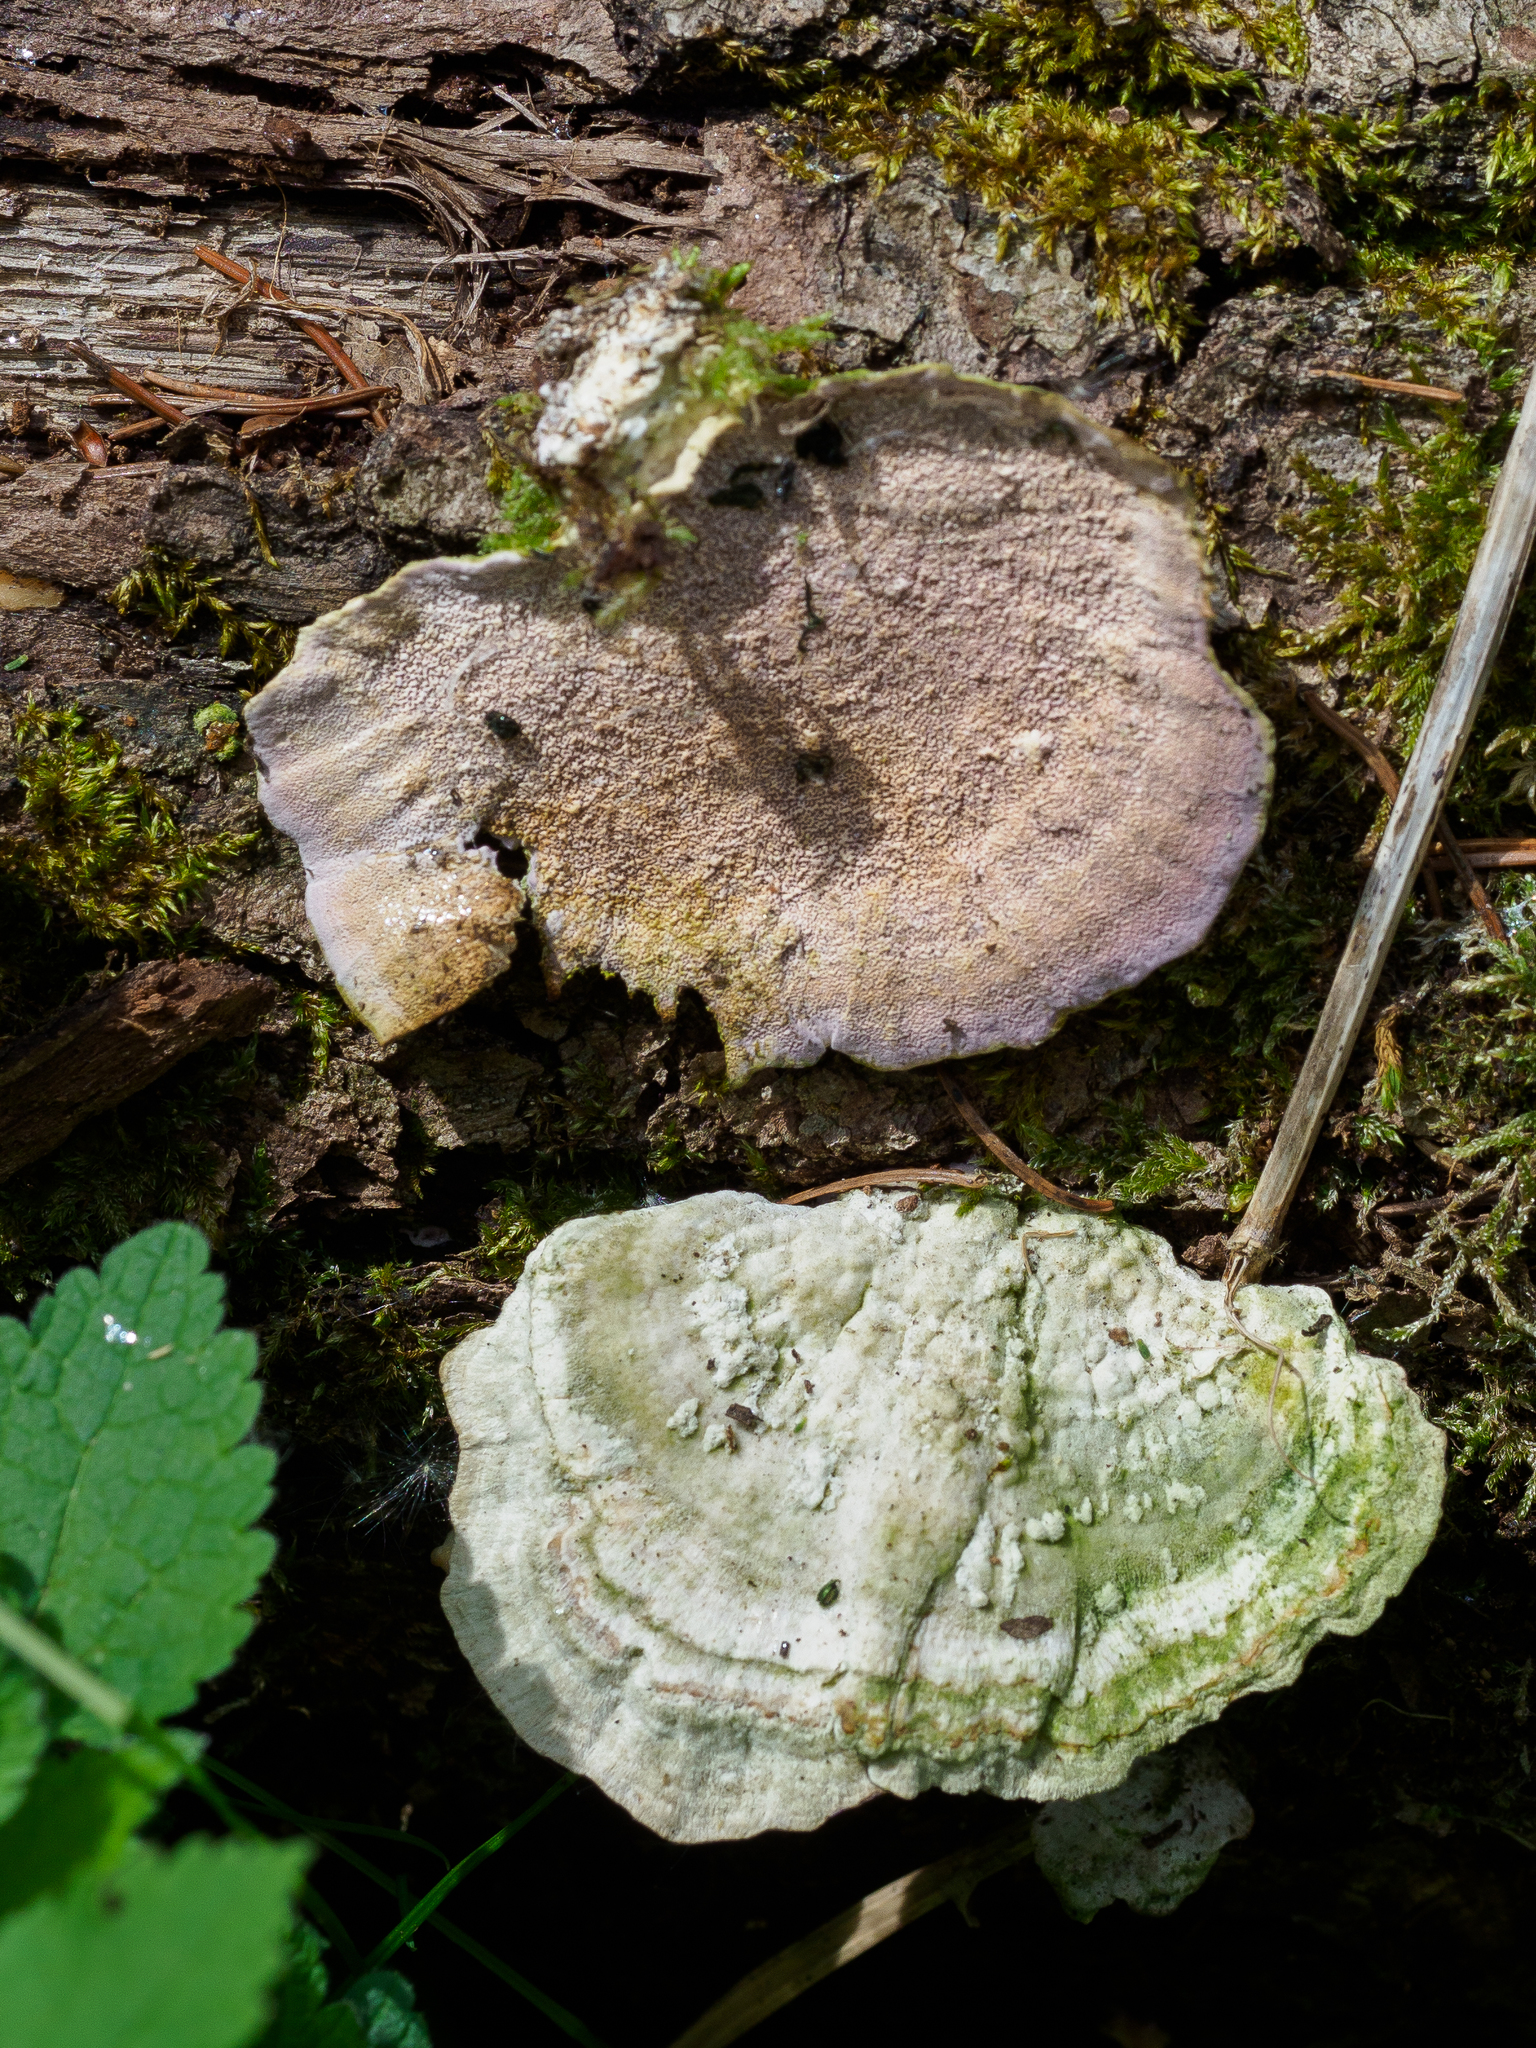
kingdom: Fungi
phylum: Basidiomycota
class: Agaricomycetes
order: Hymenochaetales
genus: Trichaptum
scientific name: Trichaptum biforme
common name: Violet-toothed polypore
